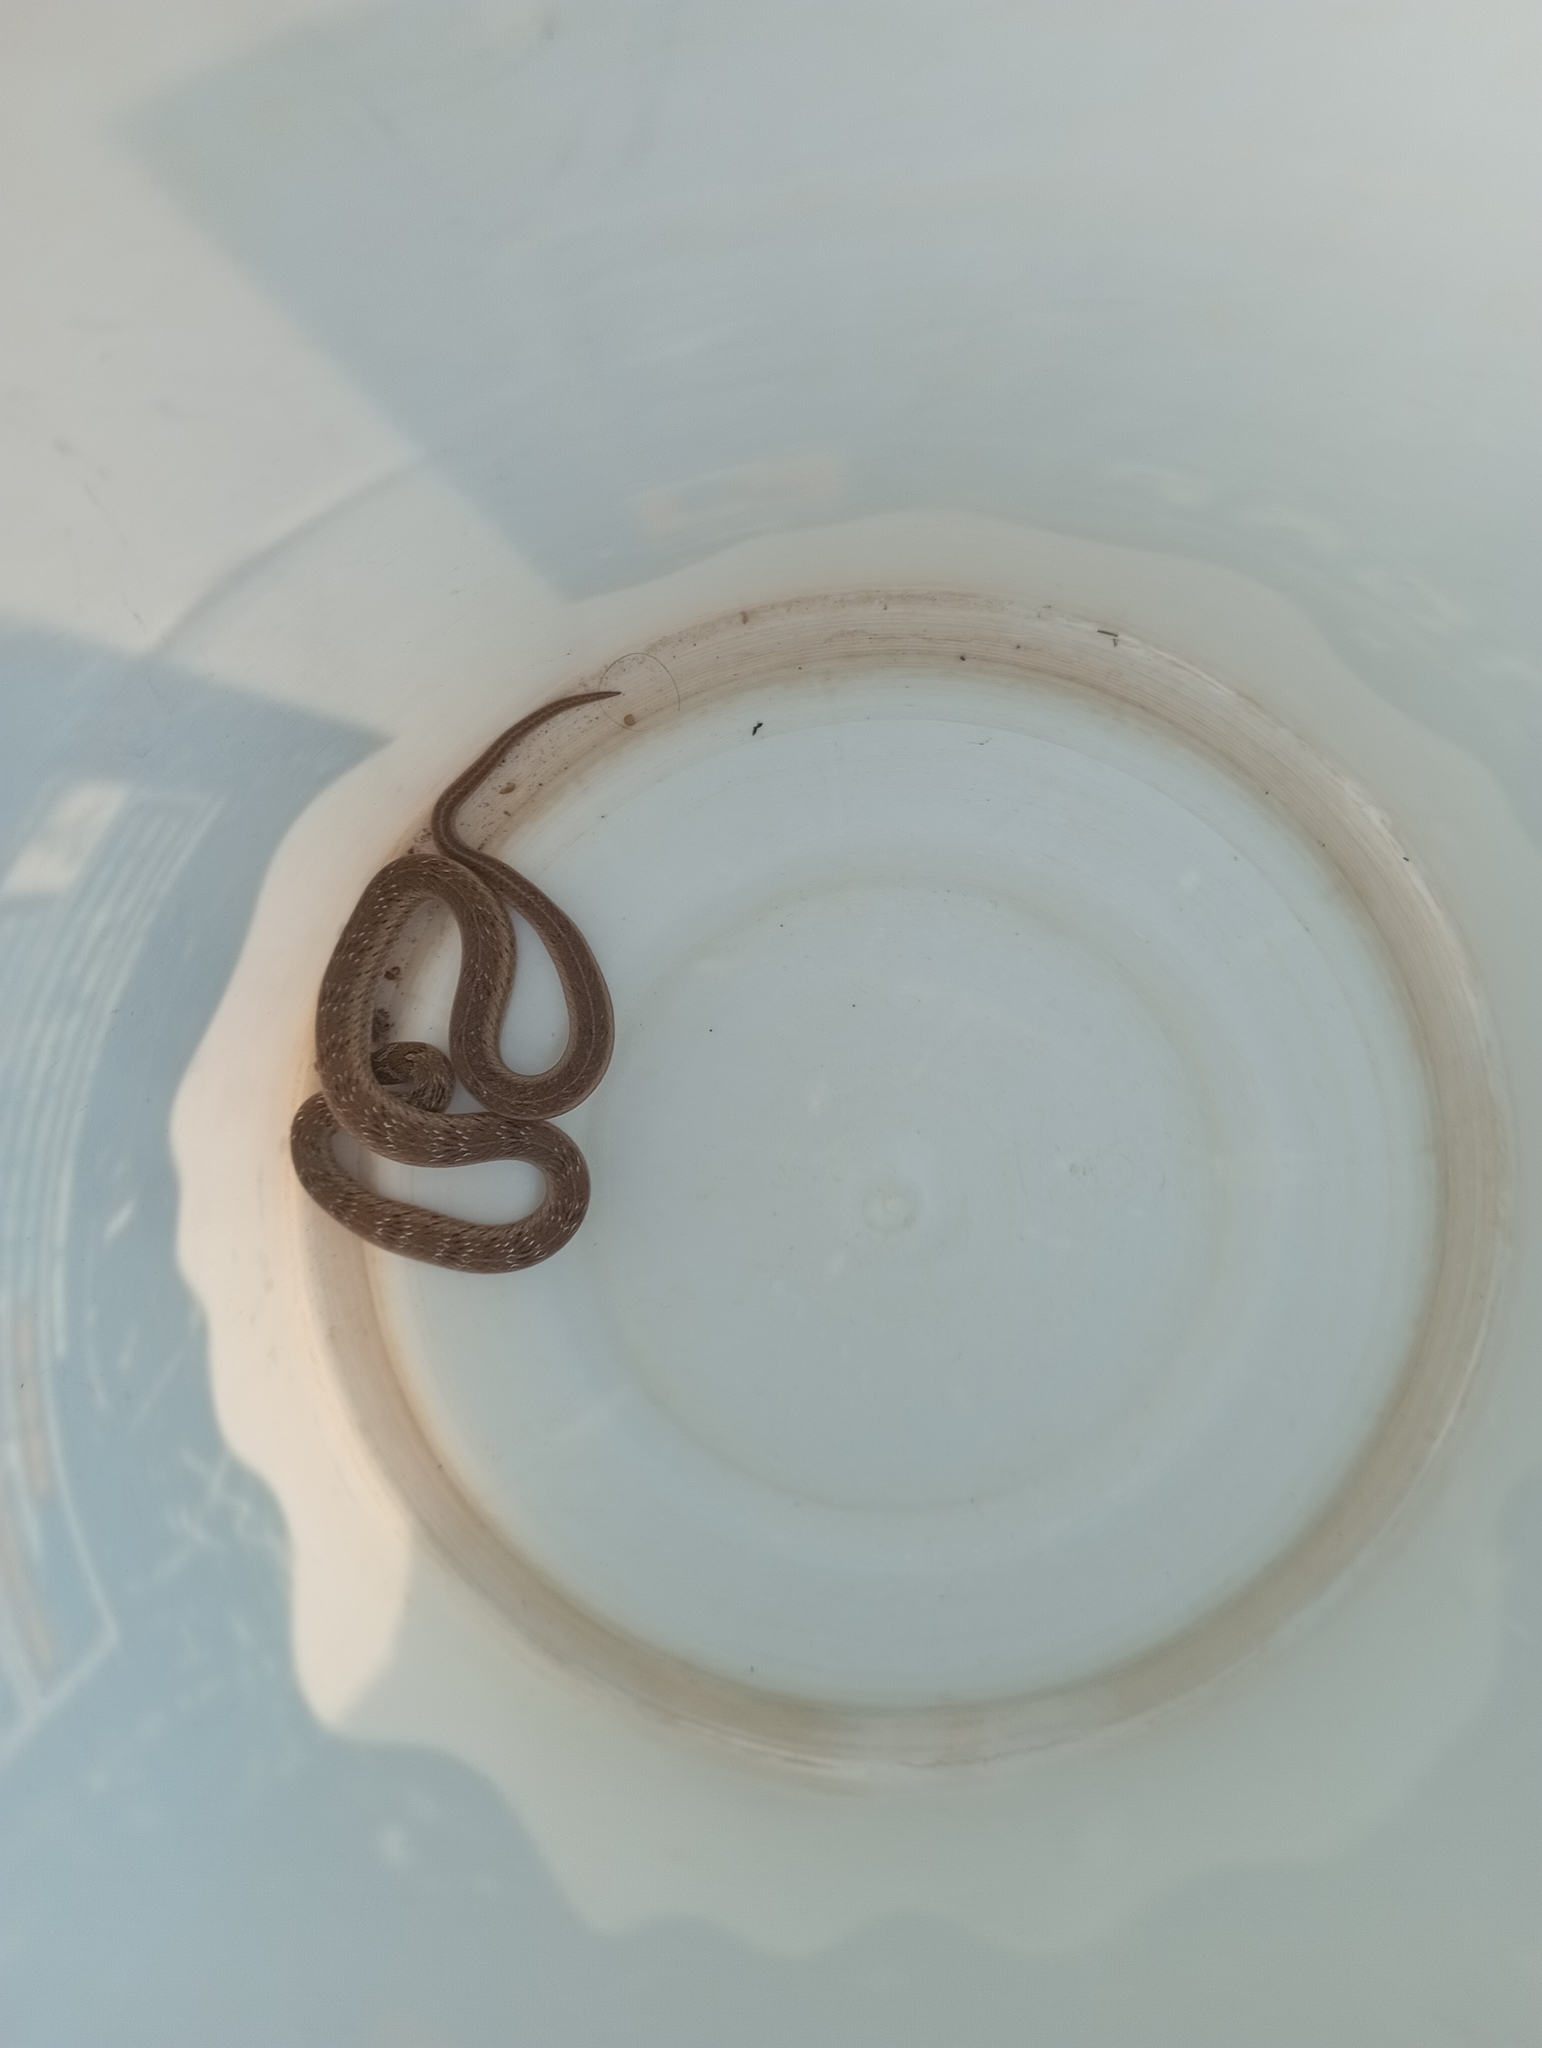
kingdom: Animalia
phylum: Chordata
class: Squamata
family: Colubridae
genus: Oligodon
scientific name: Oligodon taeniolatus
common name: Loos snake
